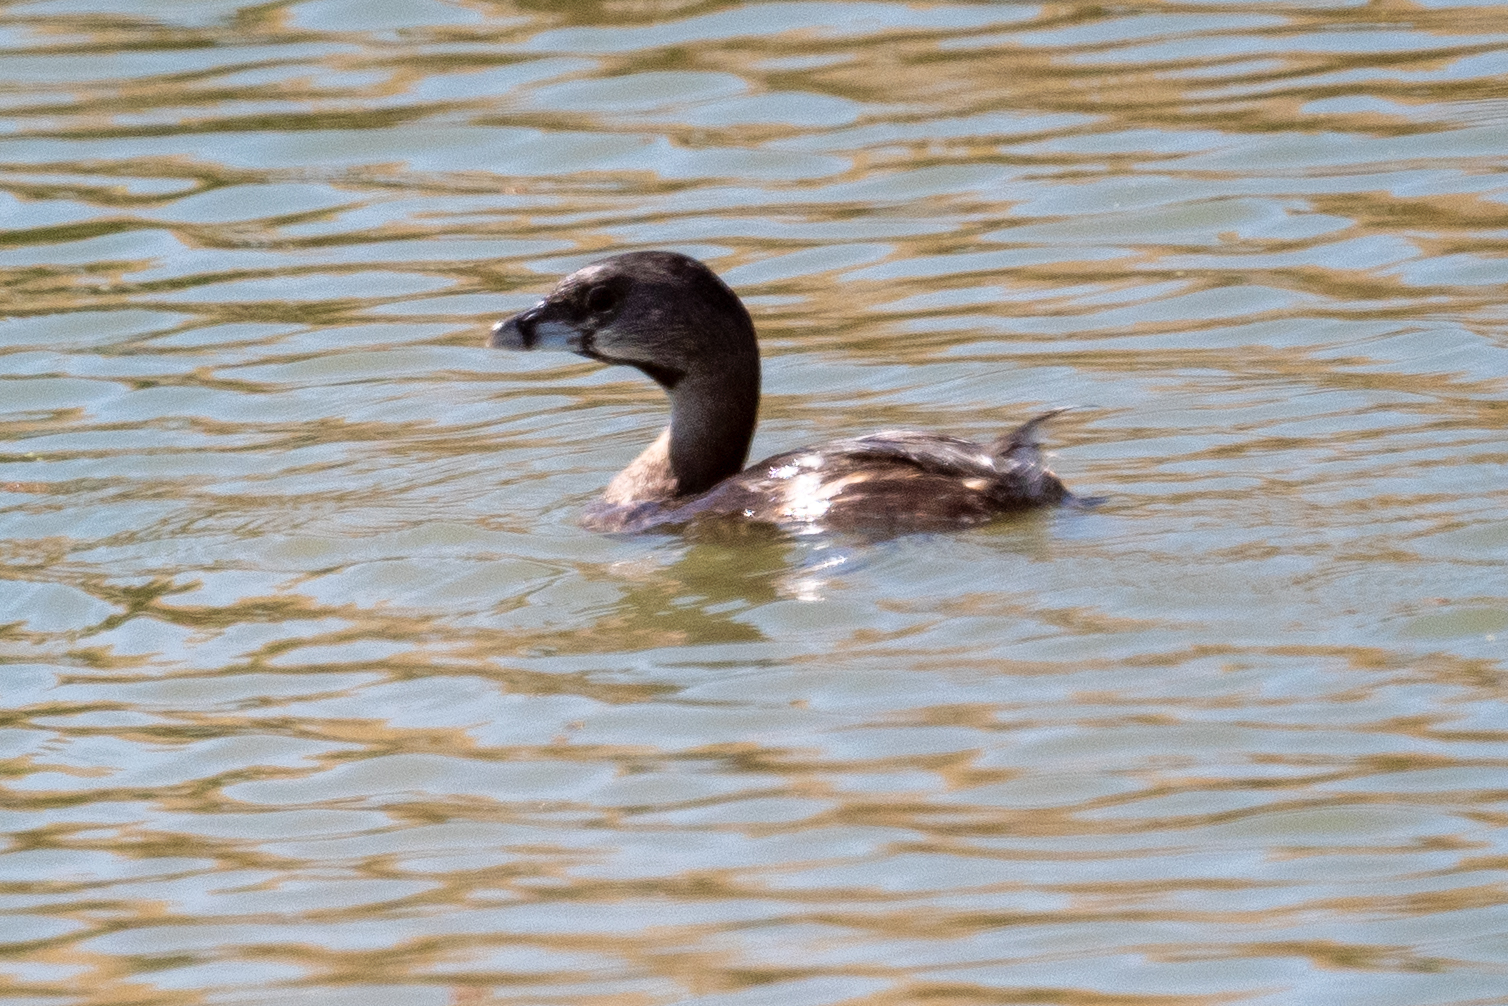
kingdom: Animalia
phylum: Chordata
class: Aves
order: Podicipediformes
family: Podicipedidae
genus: Podilymbus
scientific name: Podilymbus podiceps
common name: Pied-billed grebe
